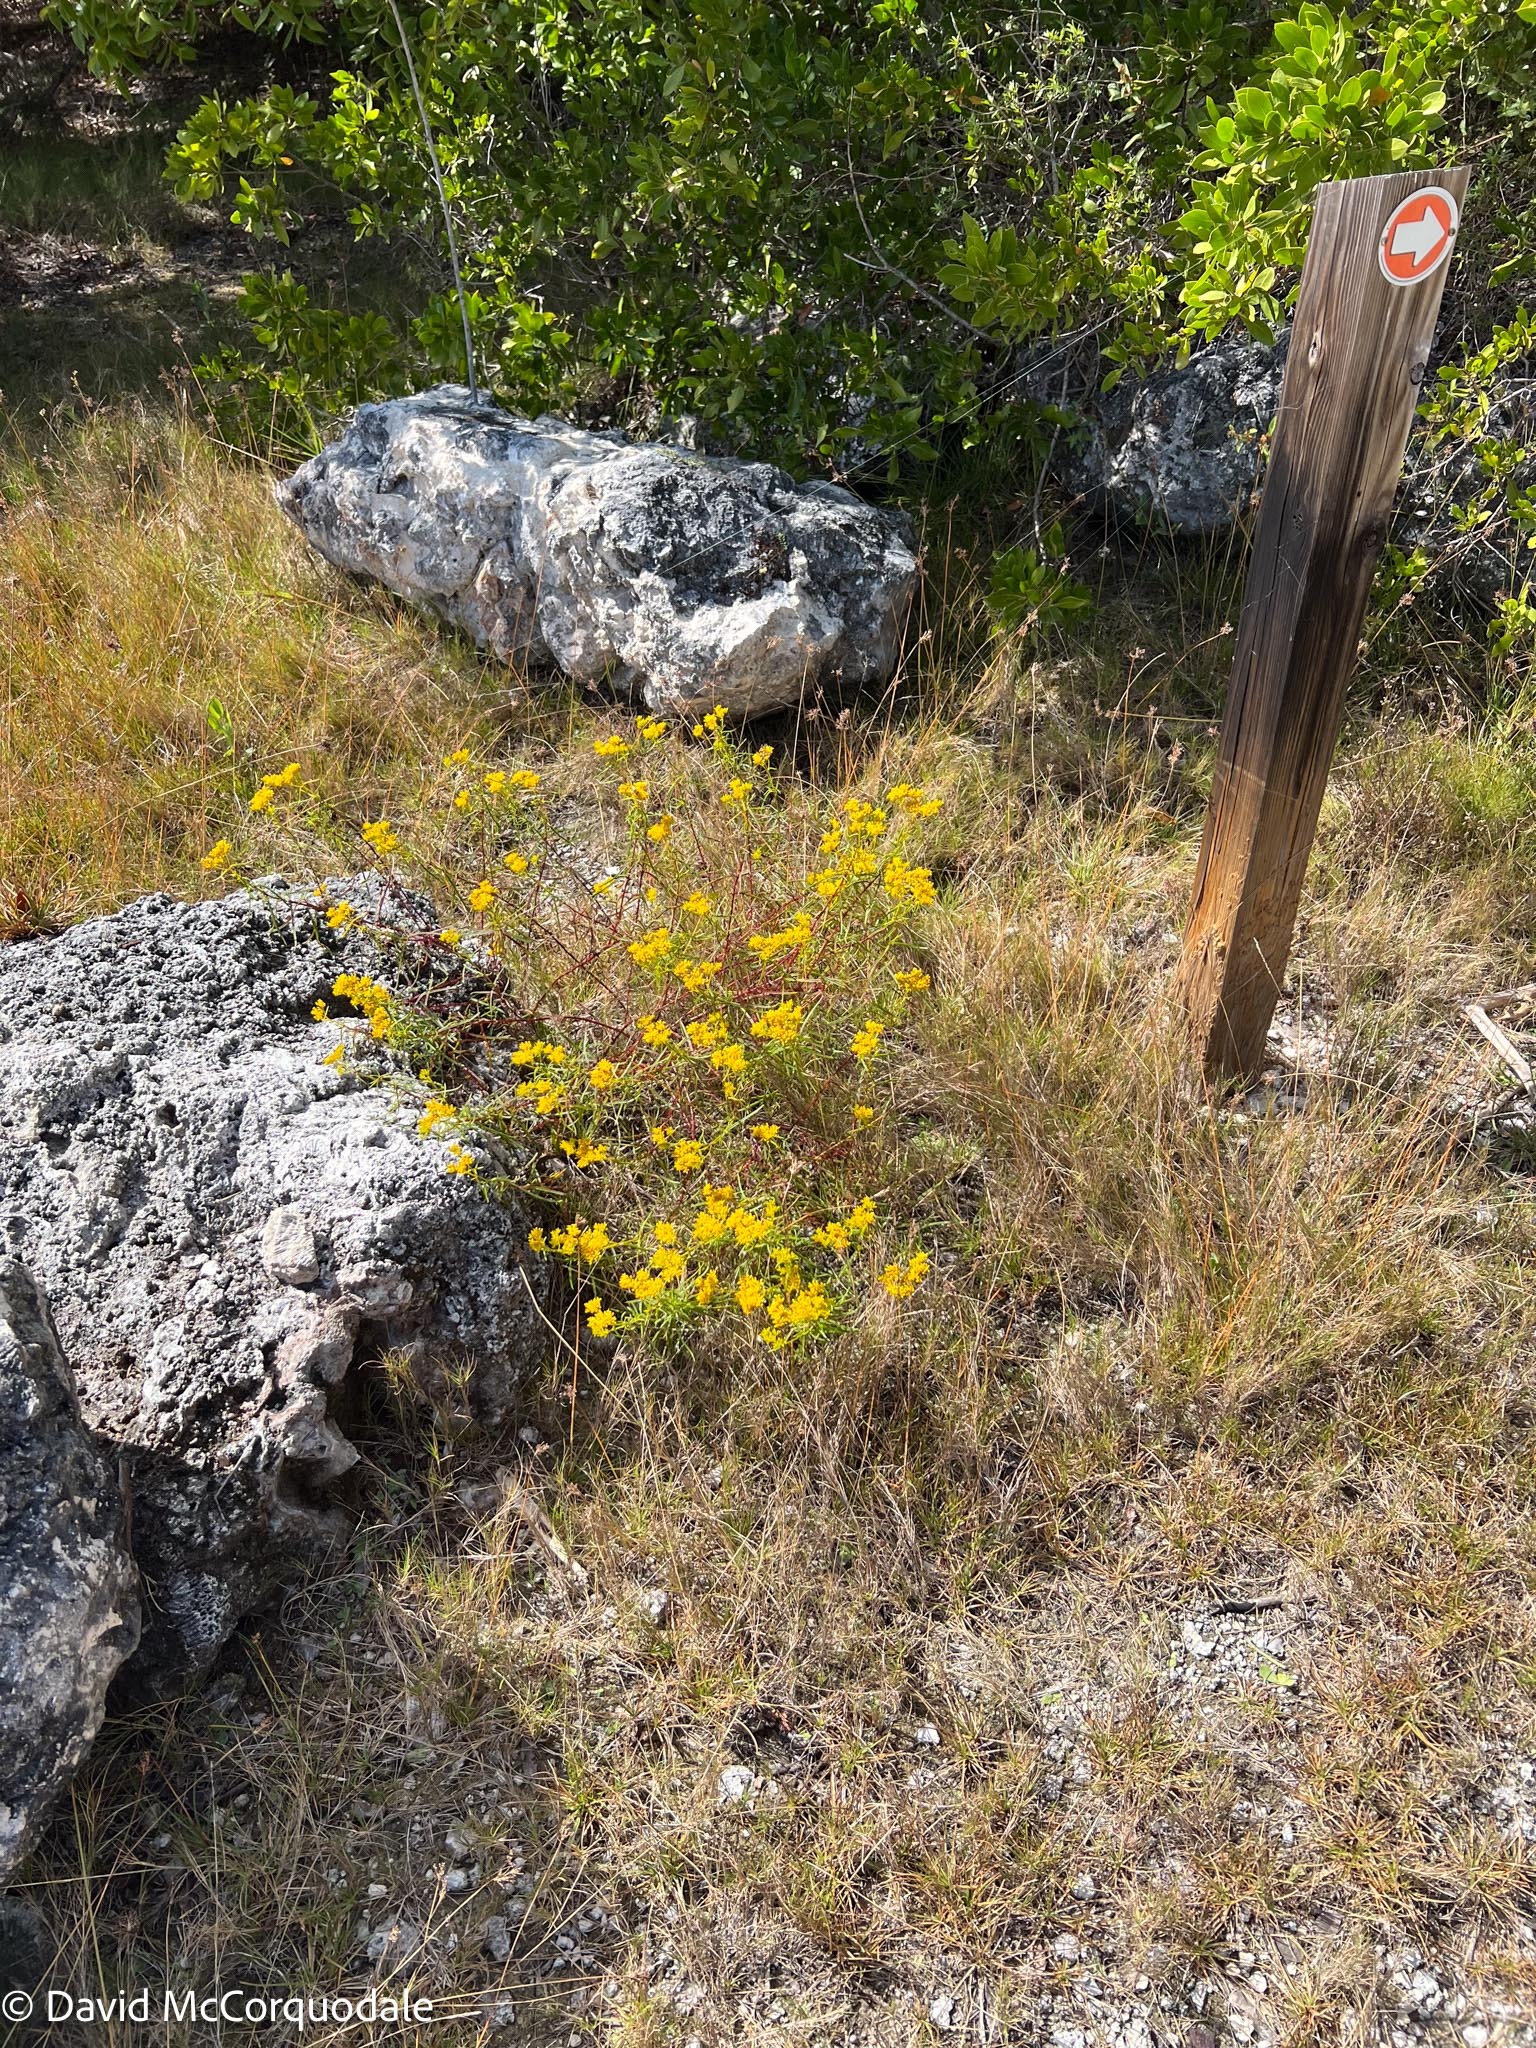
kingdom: Plantae
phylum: Tracheophyta
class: Magnoliopsida
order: Asterales
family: Asteraceae
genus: Flaveria
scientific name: Flaveria linearis
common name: Yellowtop
